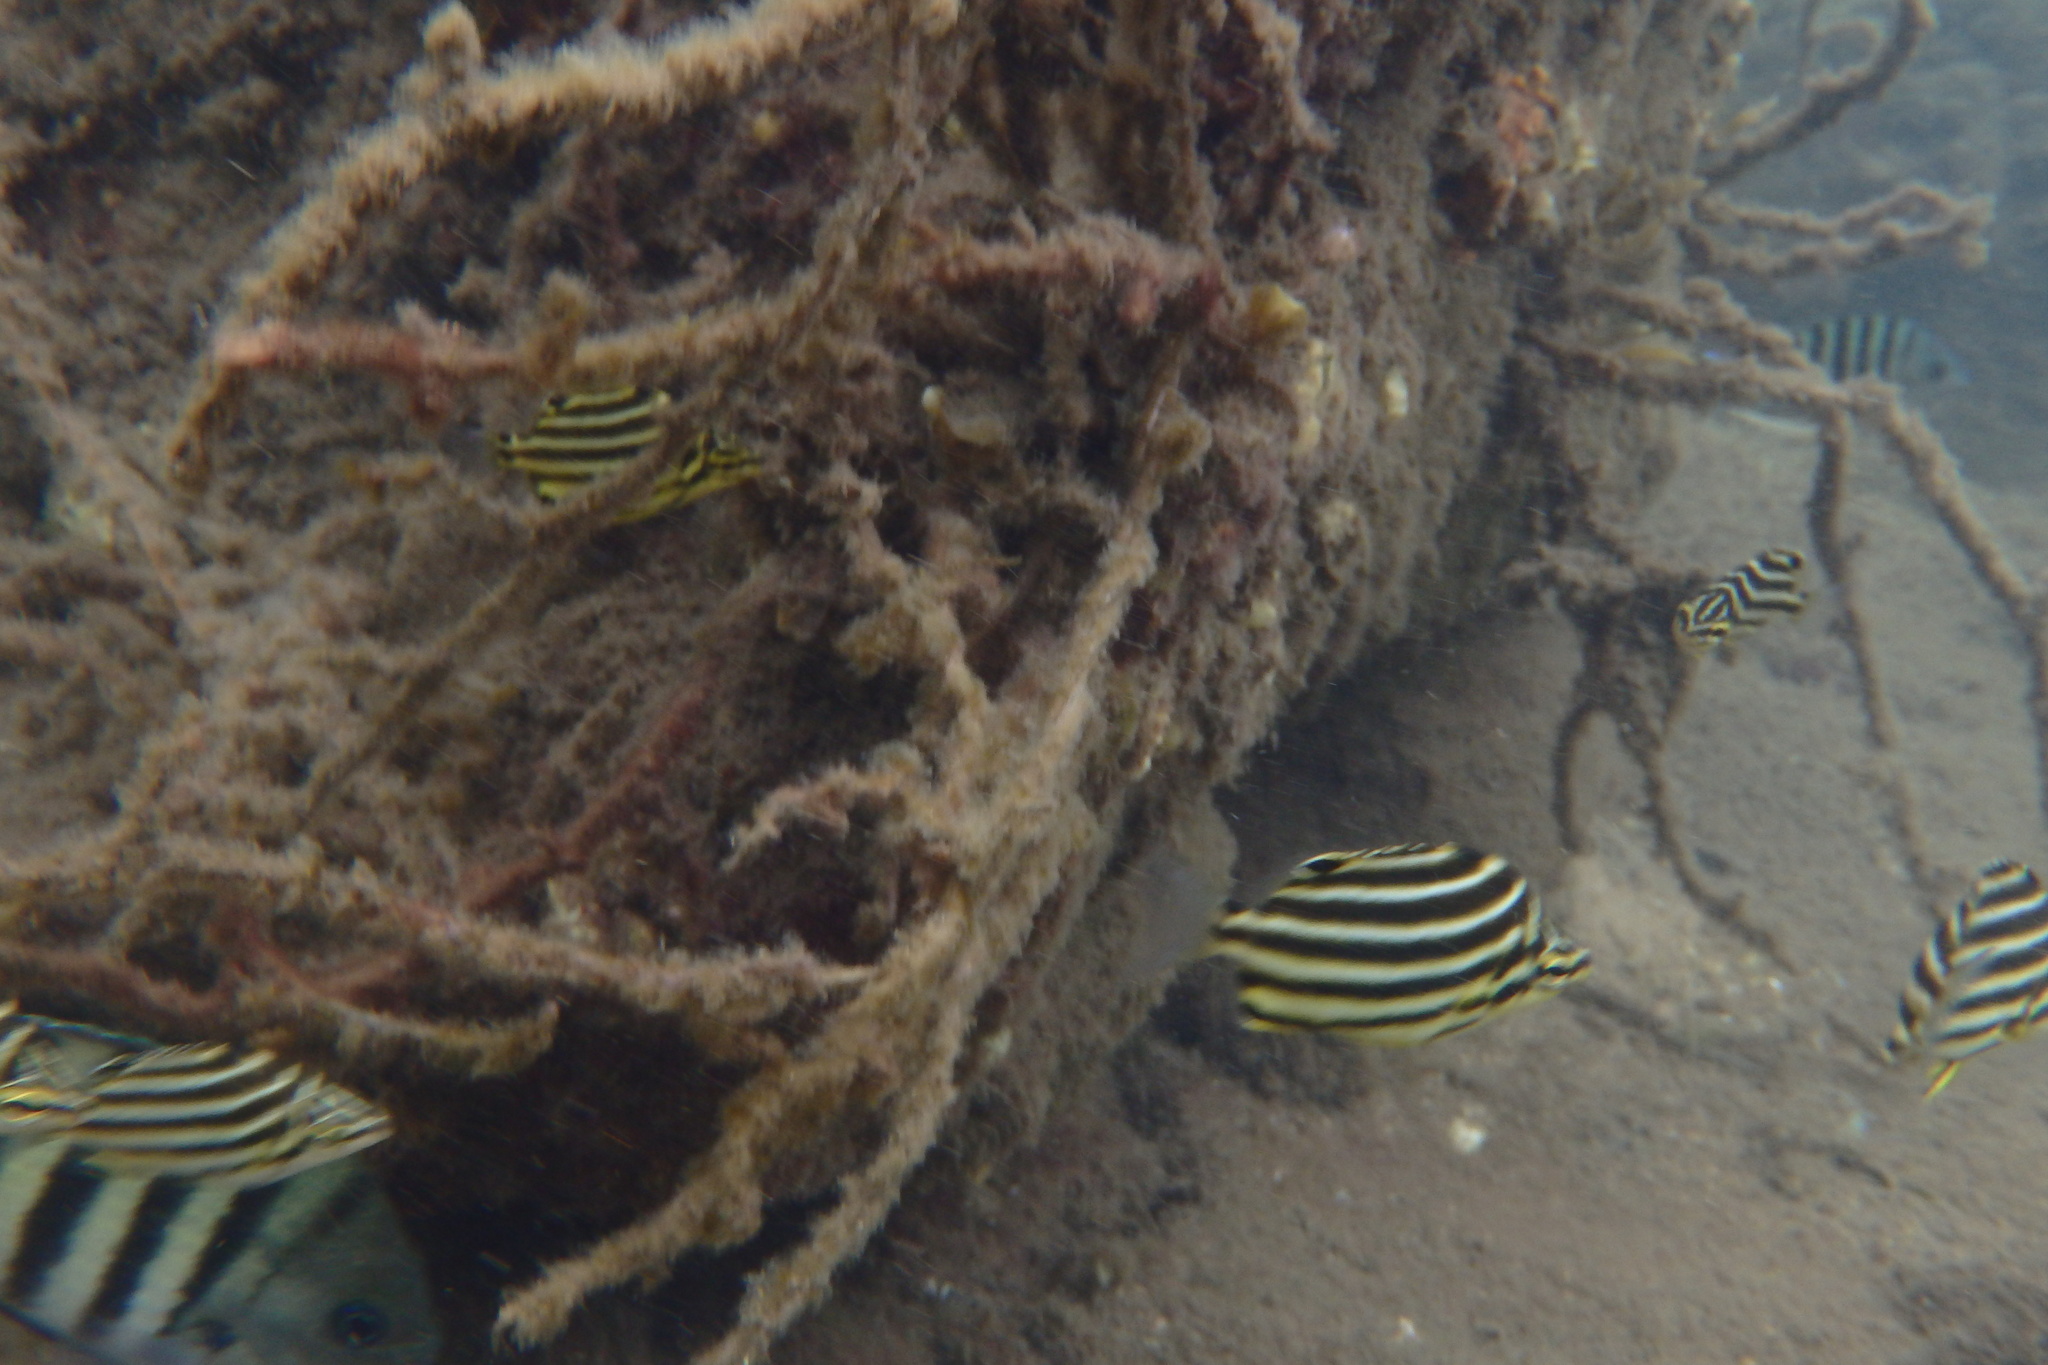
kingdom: Animalia
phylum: Chordata
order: Perciformes
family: Kyphosidae
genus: Microcanthus
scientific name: Microcanthus joyceae
